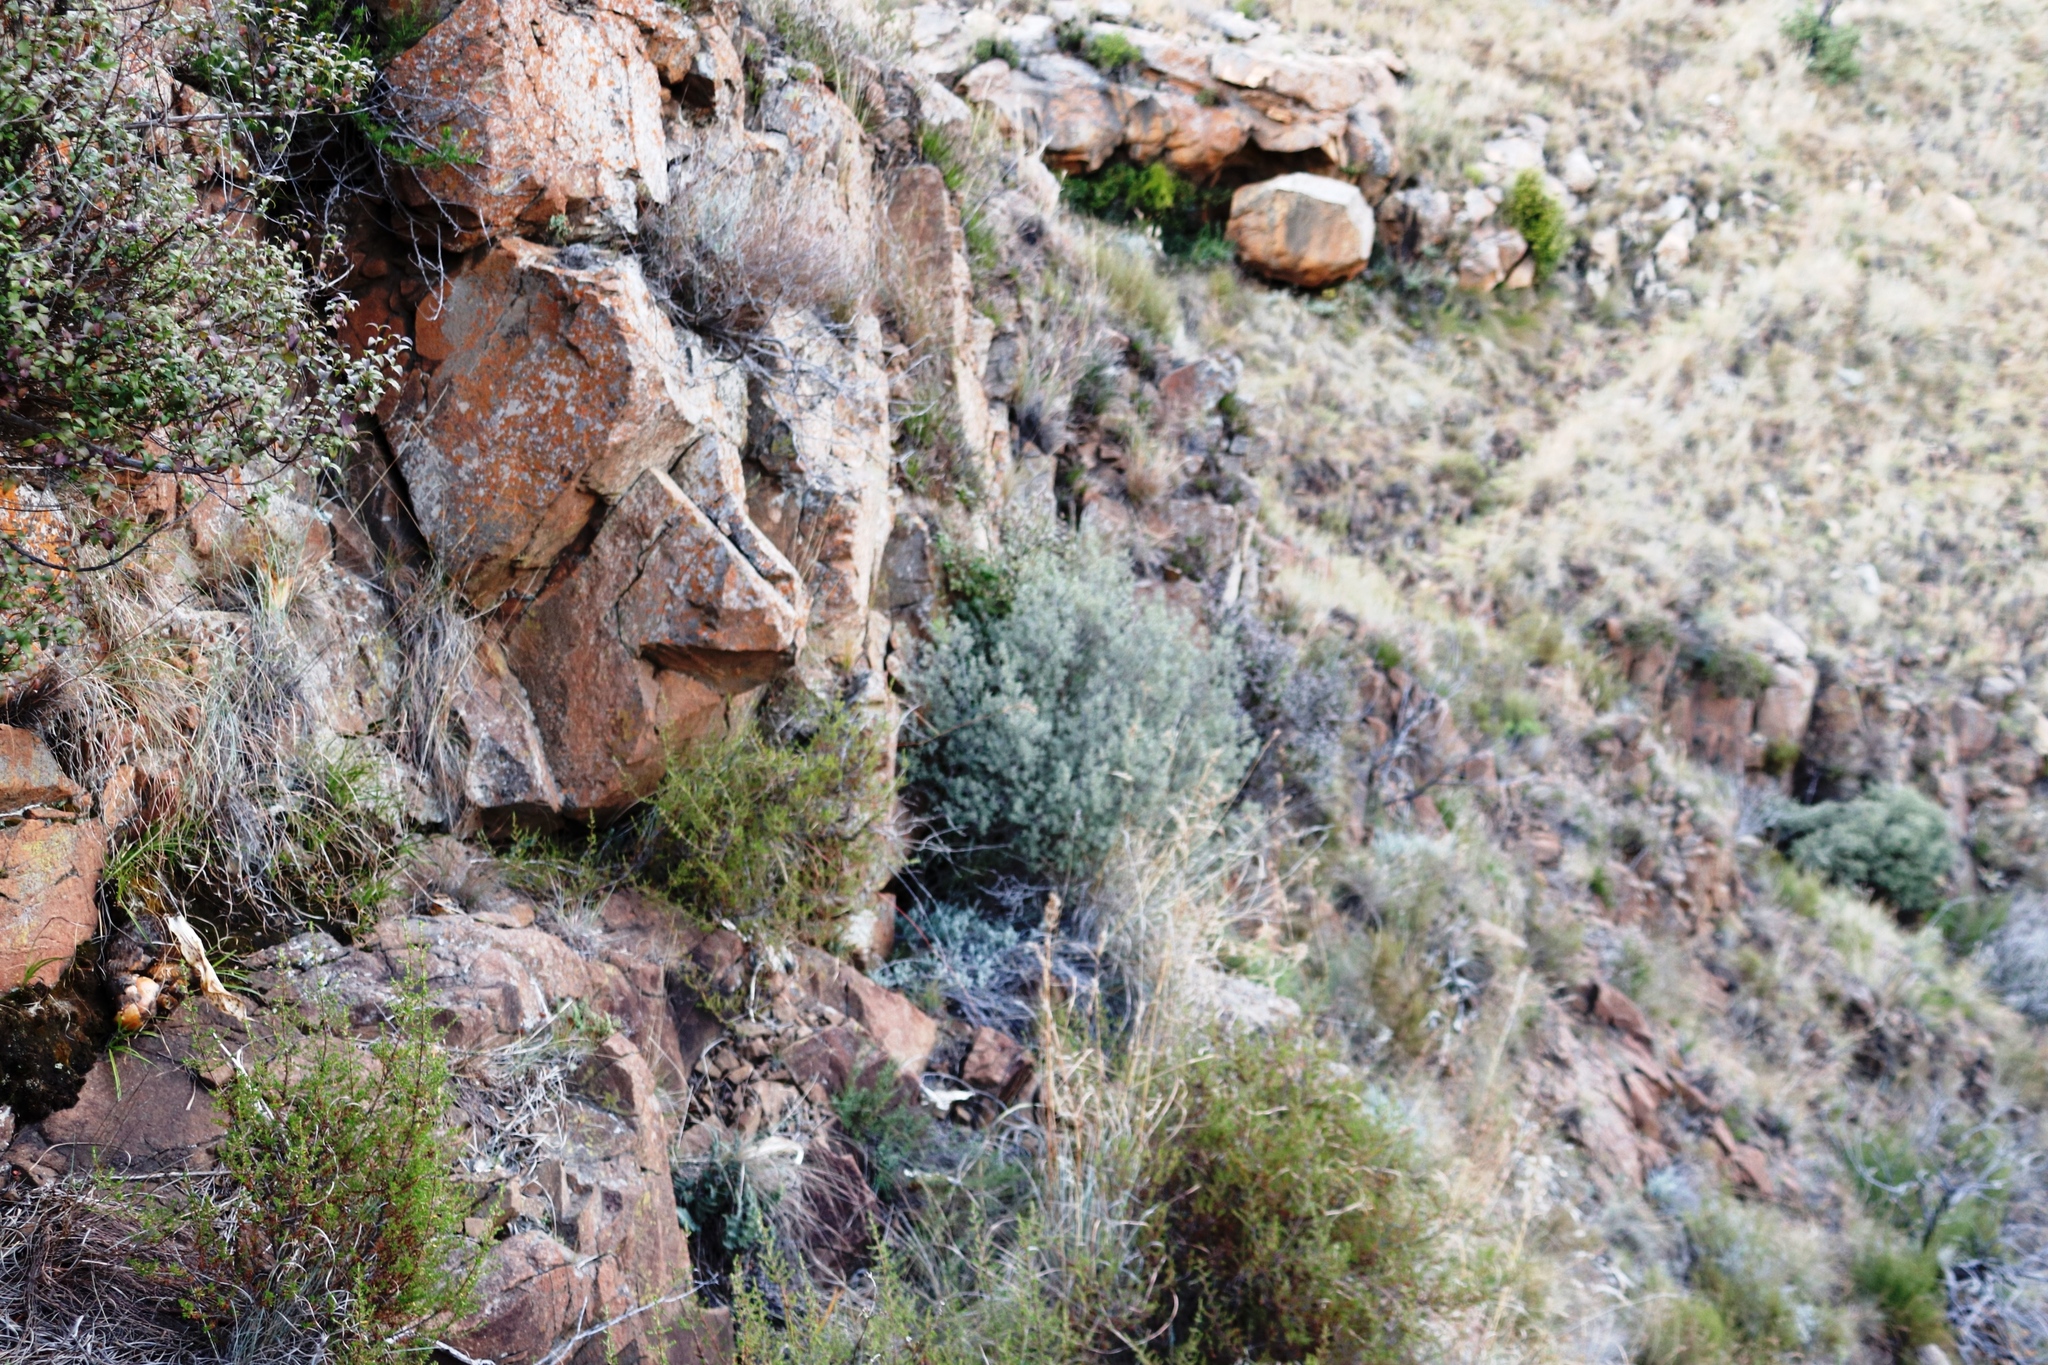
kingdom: Plantae
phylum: Tracheophyta
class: Magnoliopsida
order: Ericales
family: Ebenaceae
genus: Diospyros
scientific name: Diospyros pubescens
